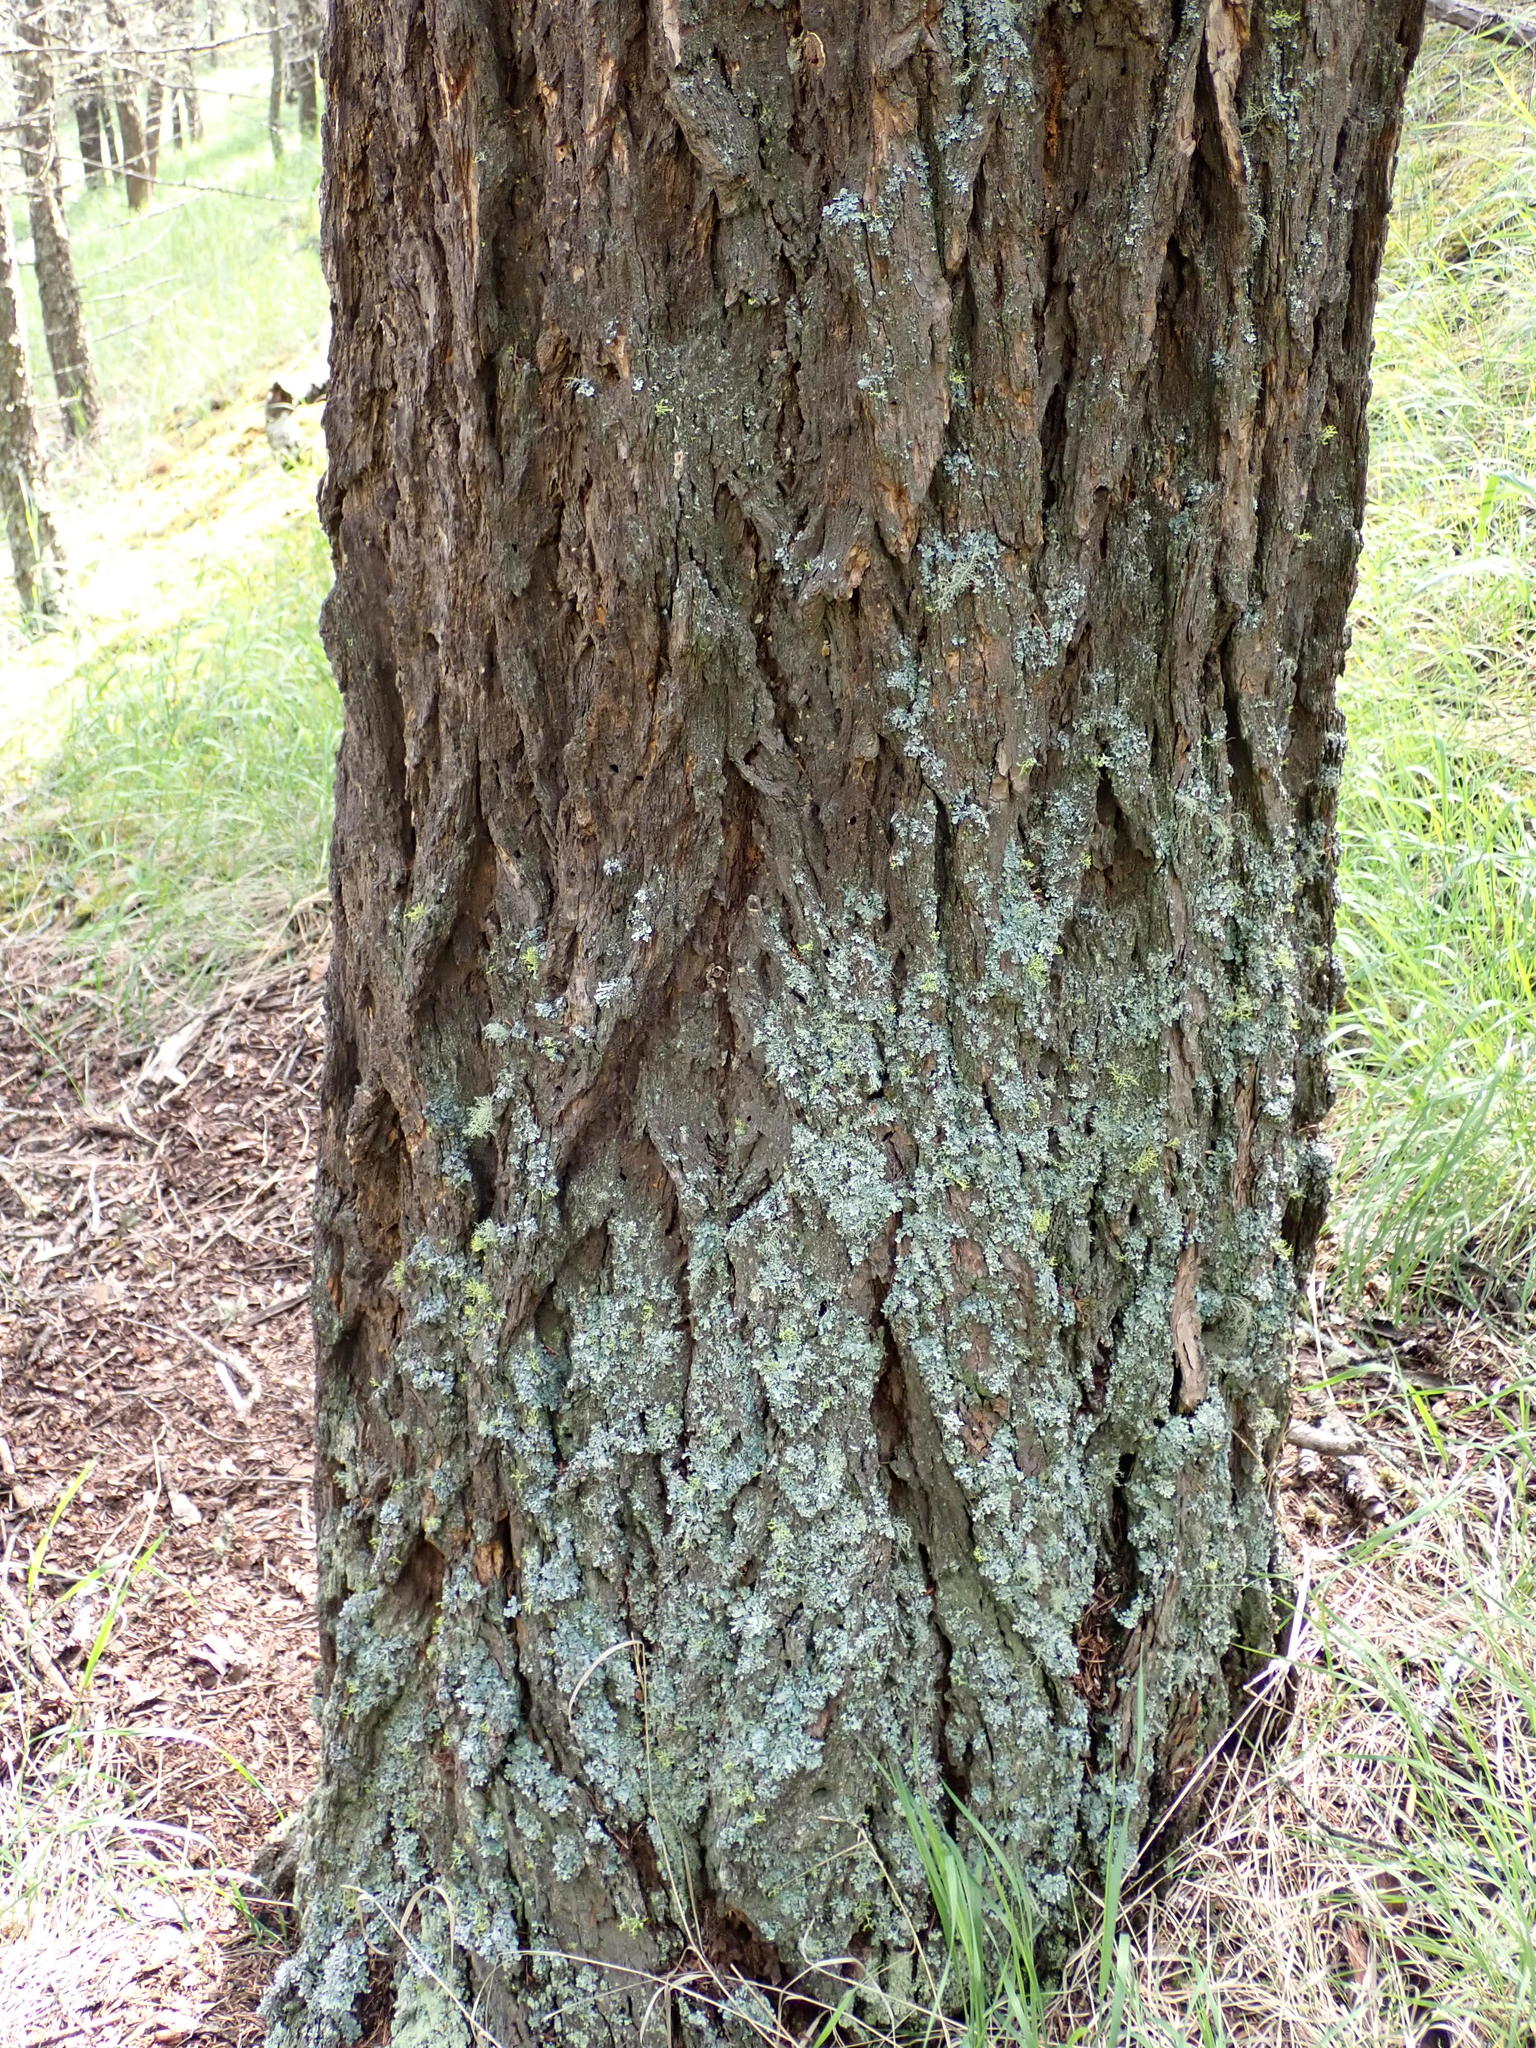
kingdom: Plantae
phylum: Tracheophyta
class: Pinopsida
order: Pinales
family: Pinaceae
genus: Pseudotsuga
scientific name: Pseudotsuga menziesii
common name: Douglas fir
